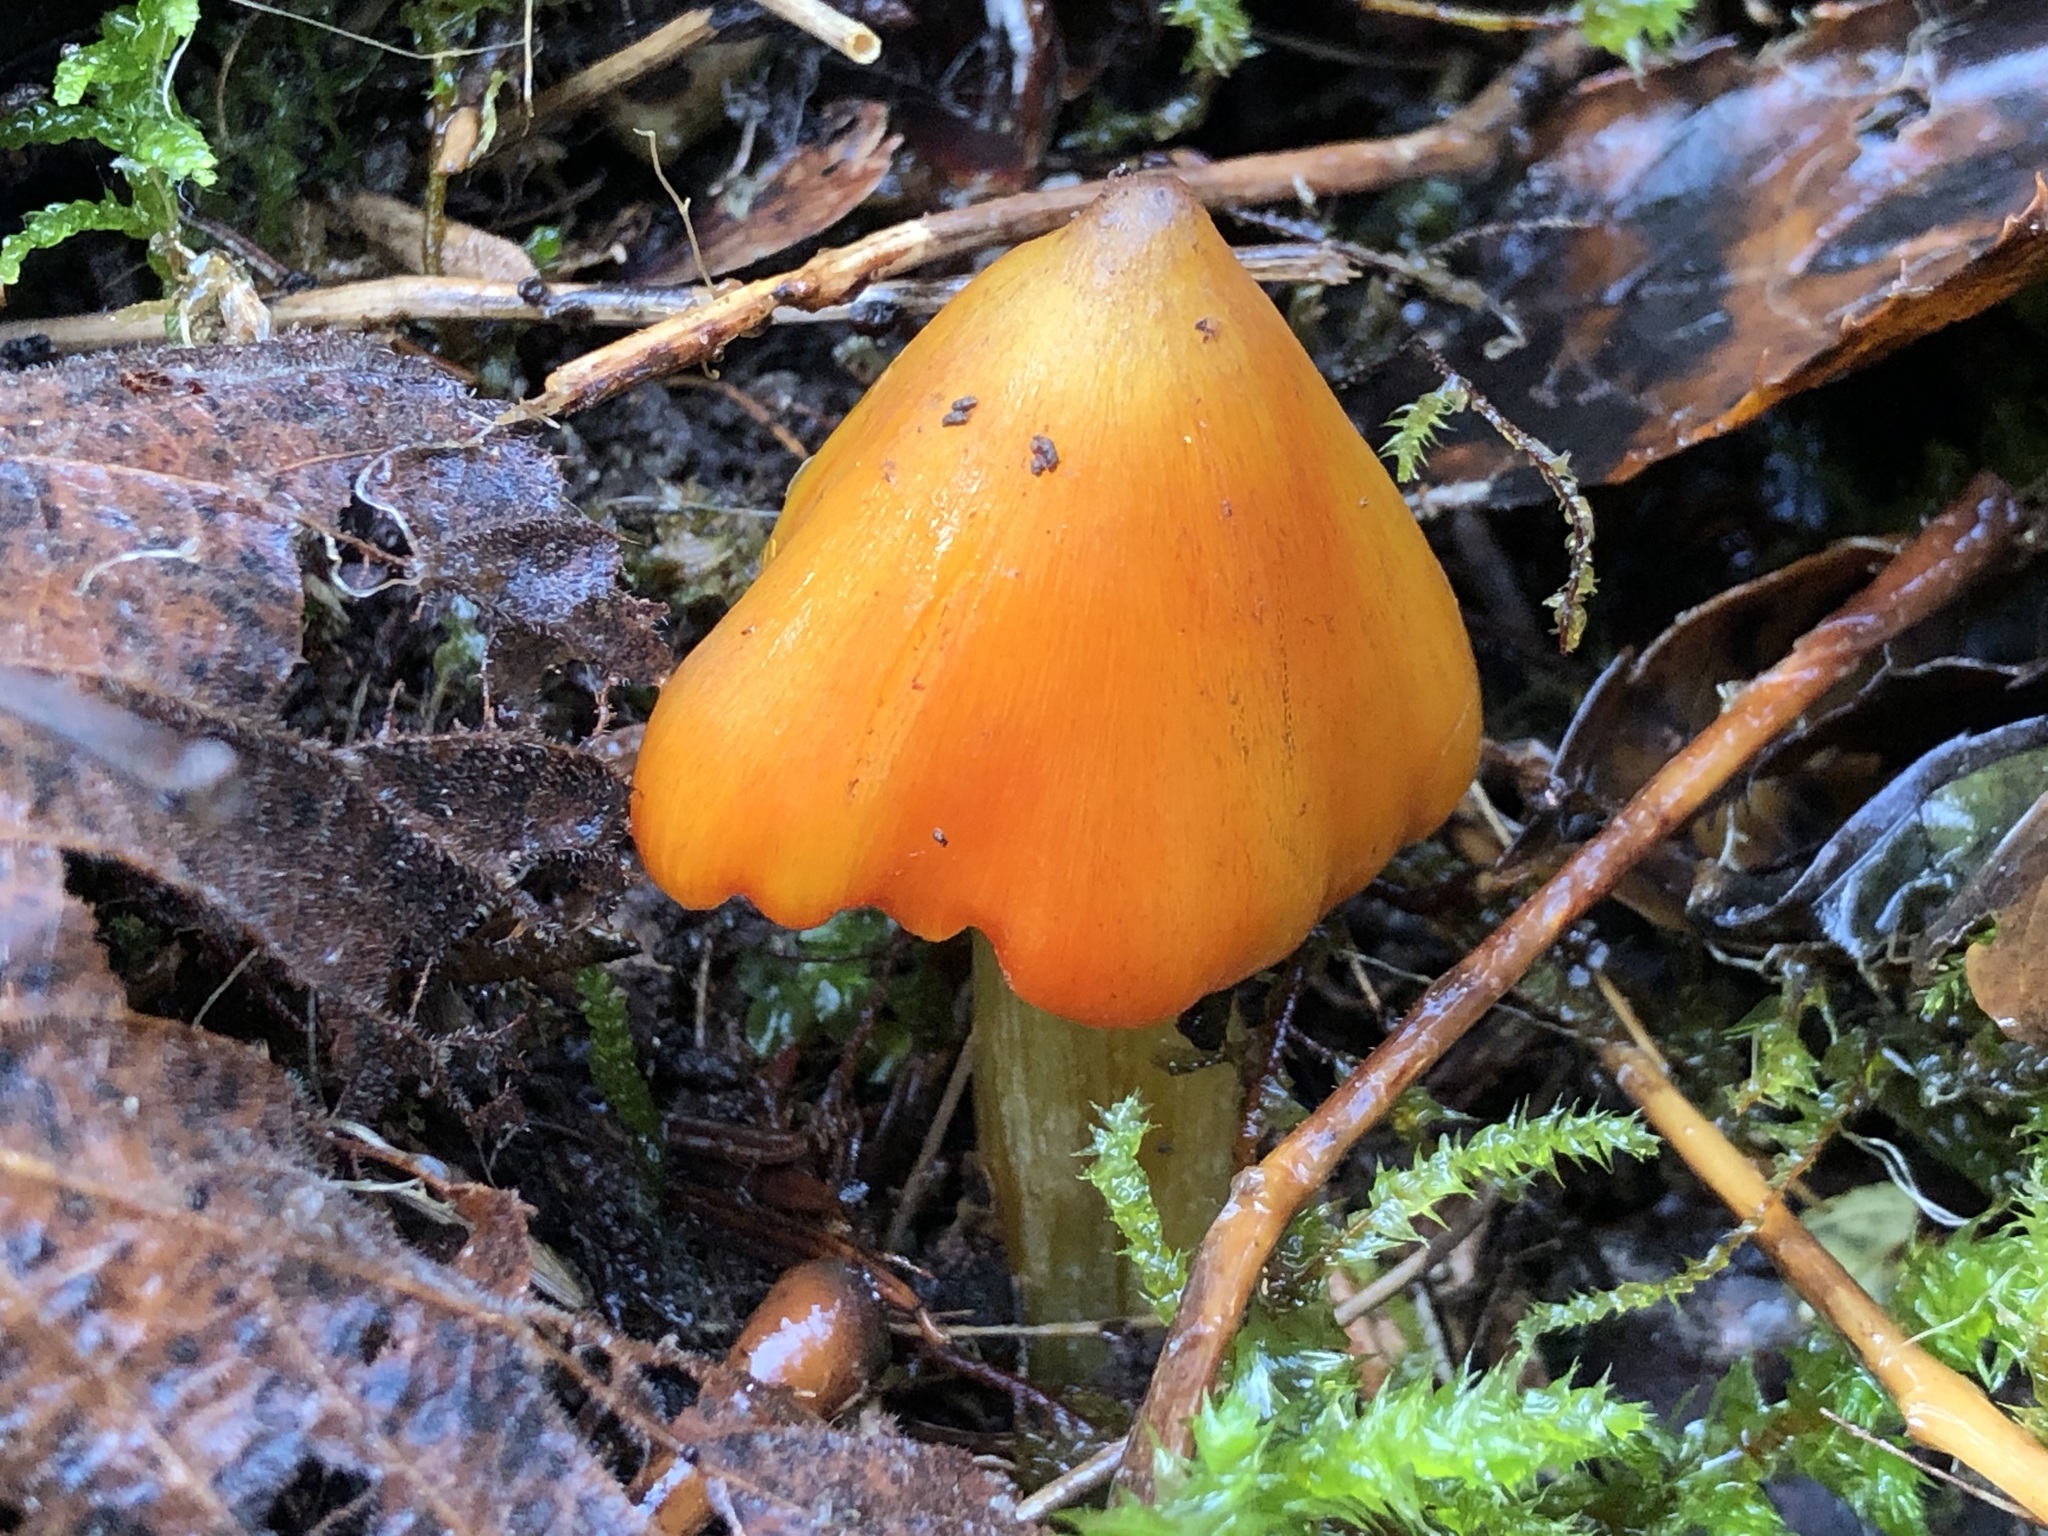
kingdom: Fungi
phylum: Basidiomycota
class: Agaricomycetes
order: Agaricales
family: Hygrophoraceae
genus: Hygrocybe
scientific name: Hygrocybe conica
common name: Blackening wax-cap
